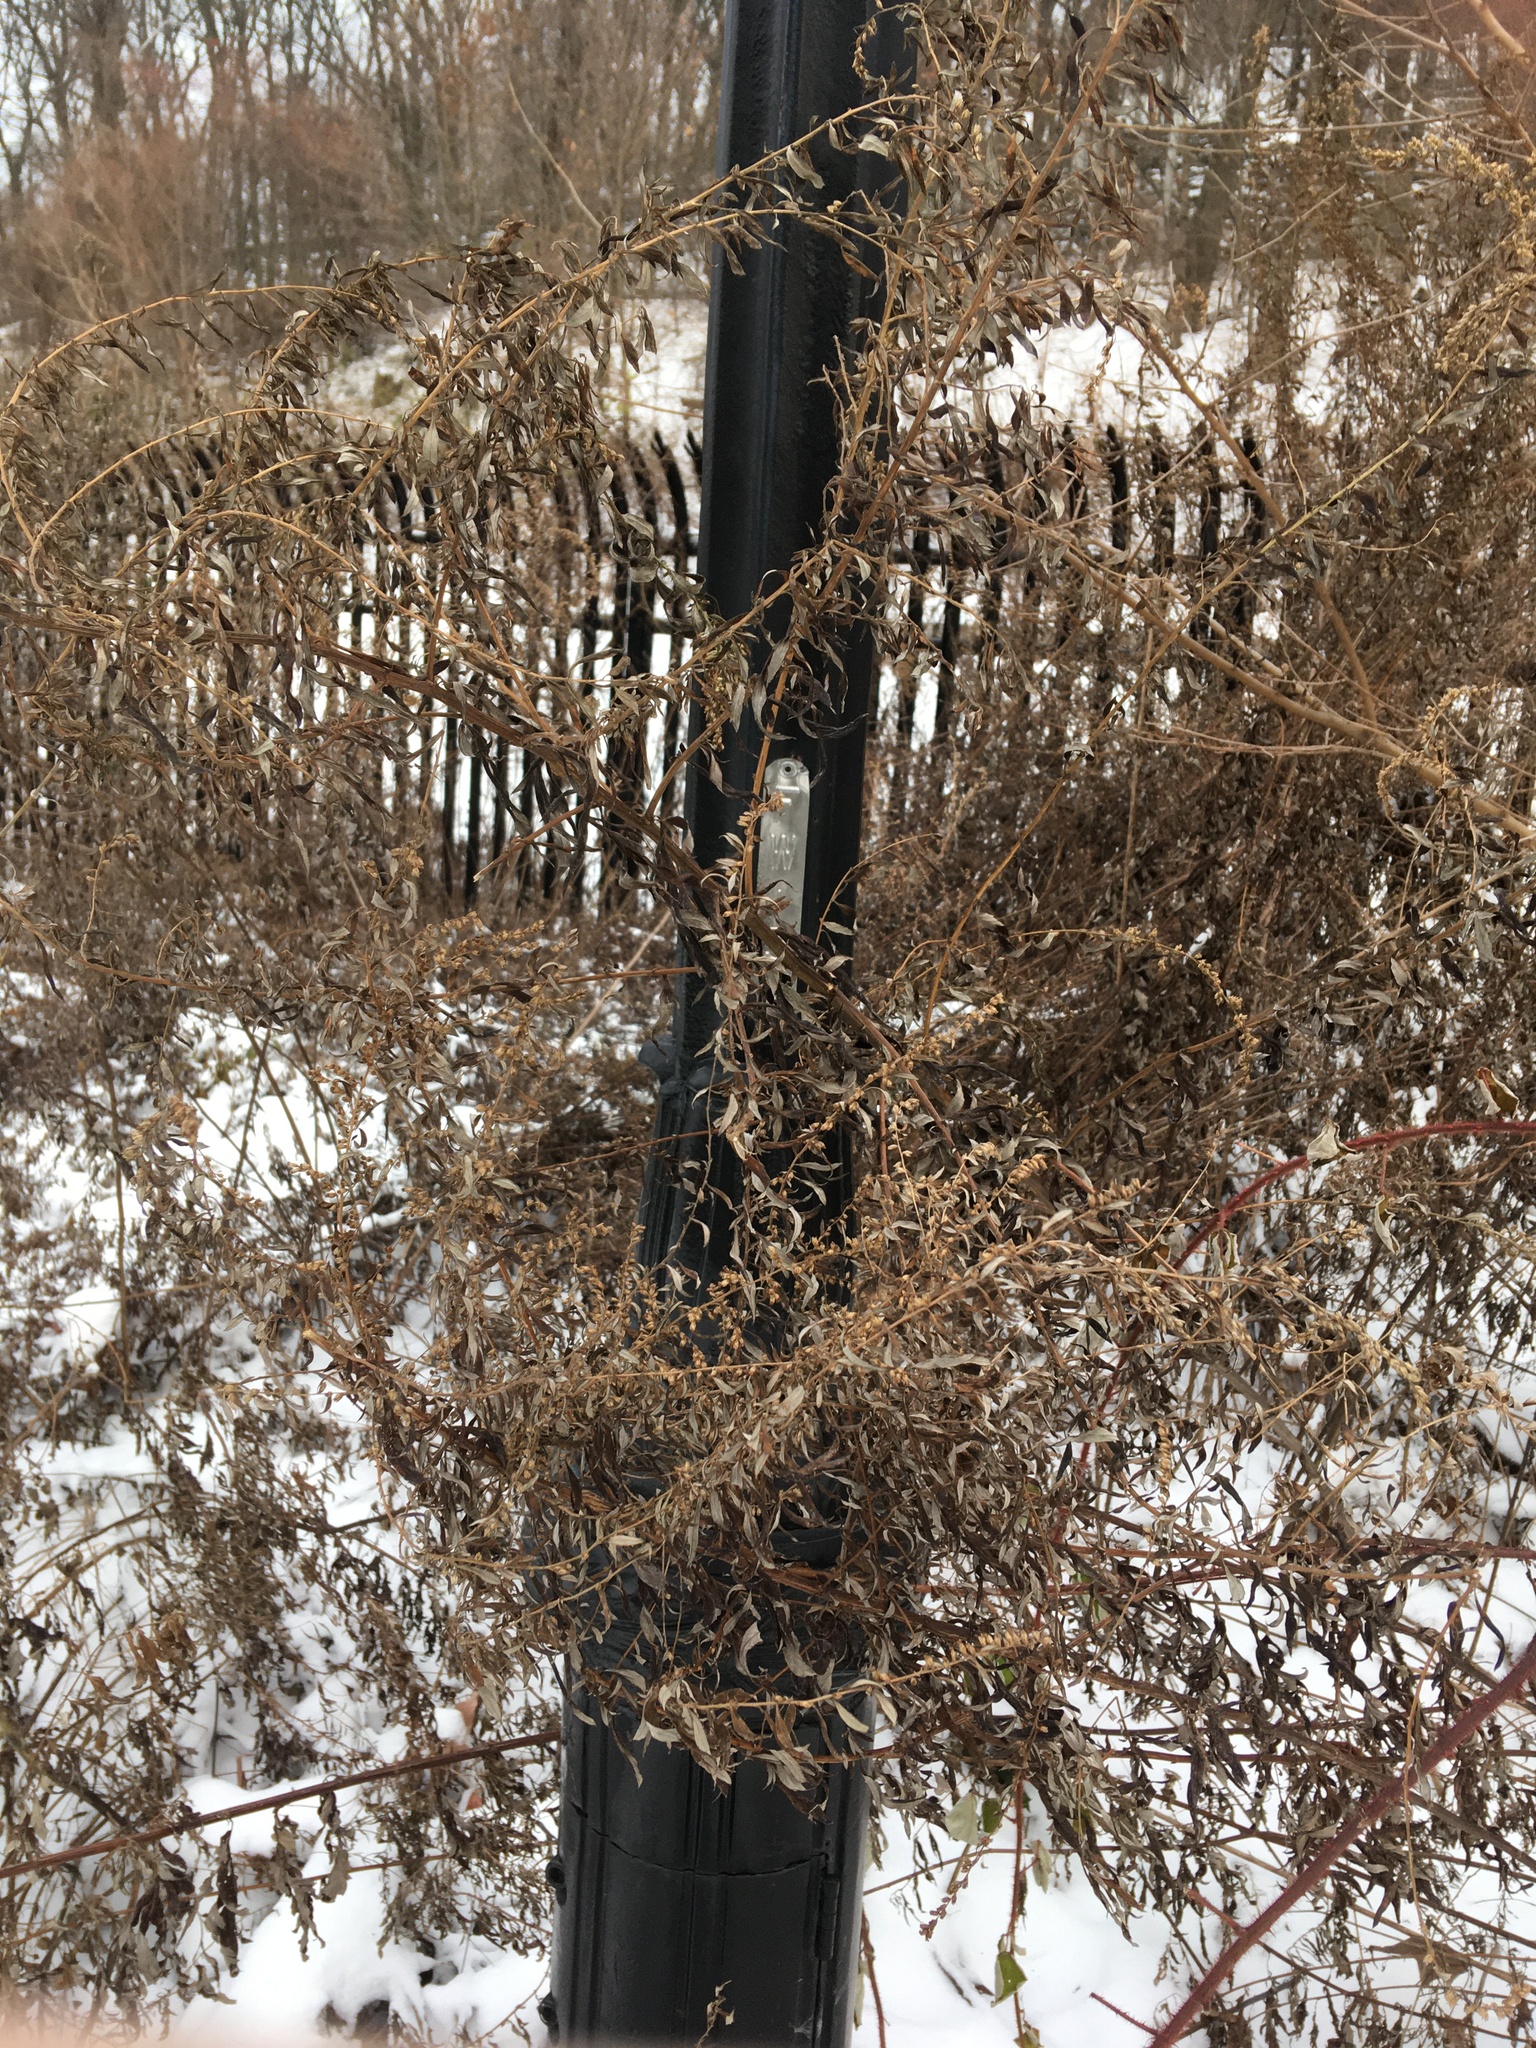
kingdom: Plantae
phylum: Tracheophyta
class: Magnoliopsida
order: Asterales
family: Asteraceae
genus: Artemisia
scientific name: Artemisia vulgaris
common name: Mugwort
